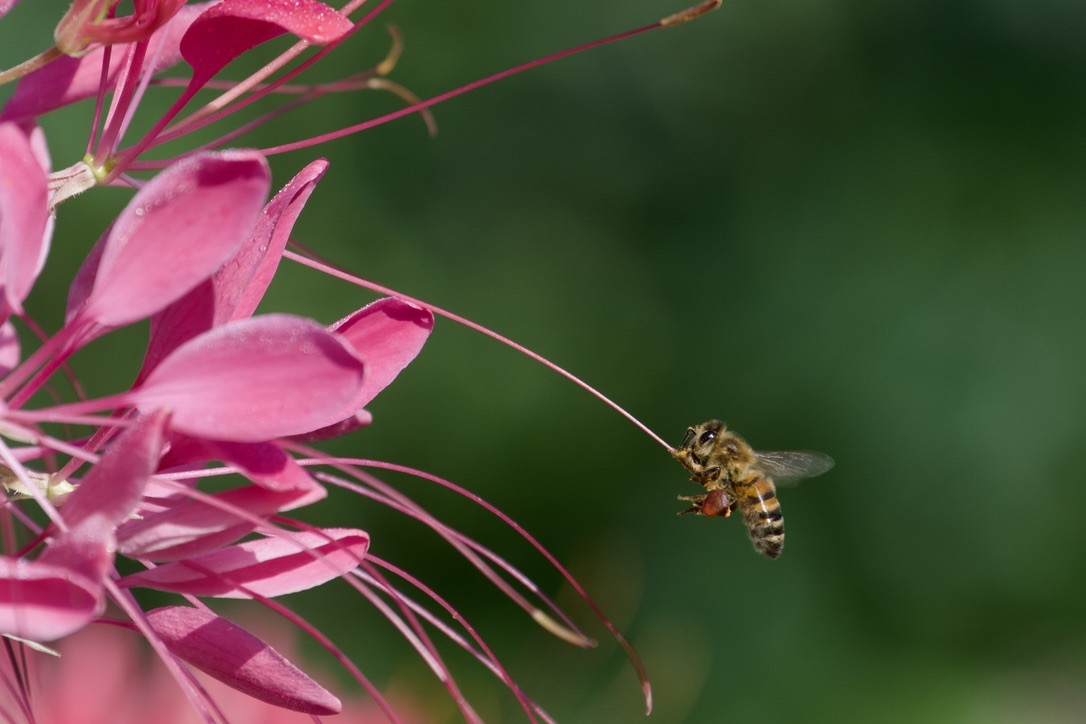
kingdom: Animalia
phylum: Arthropoda
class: Insecta
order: Hymenoptera
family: Apidae
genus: Apis
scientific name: Apis mellifera
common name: Honey bee
